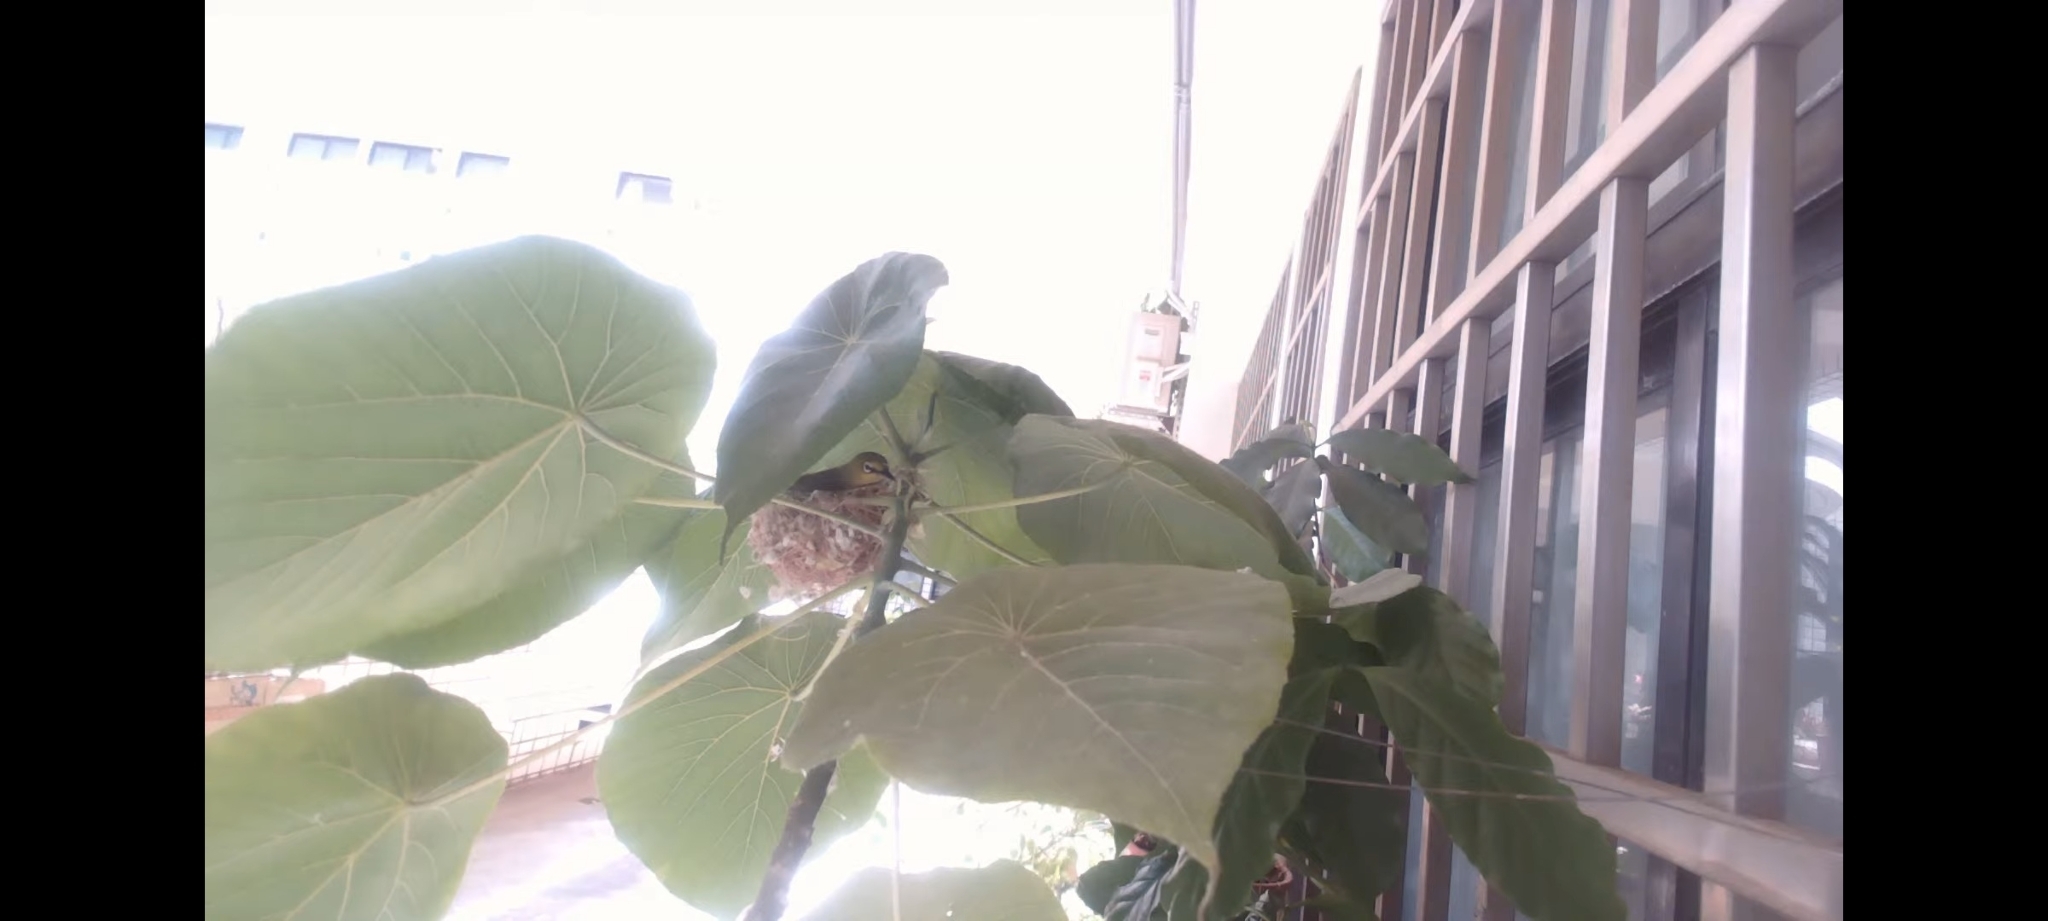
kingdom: Animalia
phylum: Chordata
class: Aves
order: Passeriformes
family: Zosteropidae
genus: Zosterops
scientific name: Zosterops simplex
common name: Swinhoe's white-eye
